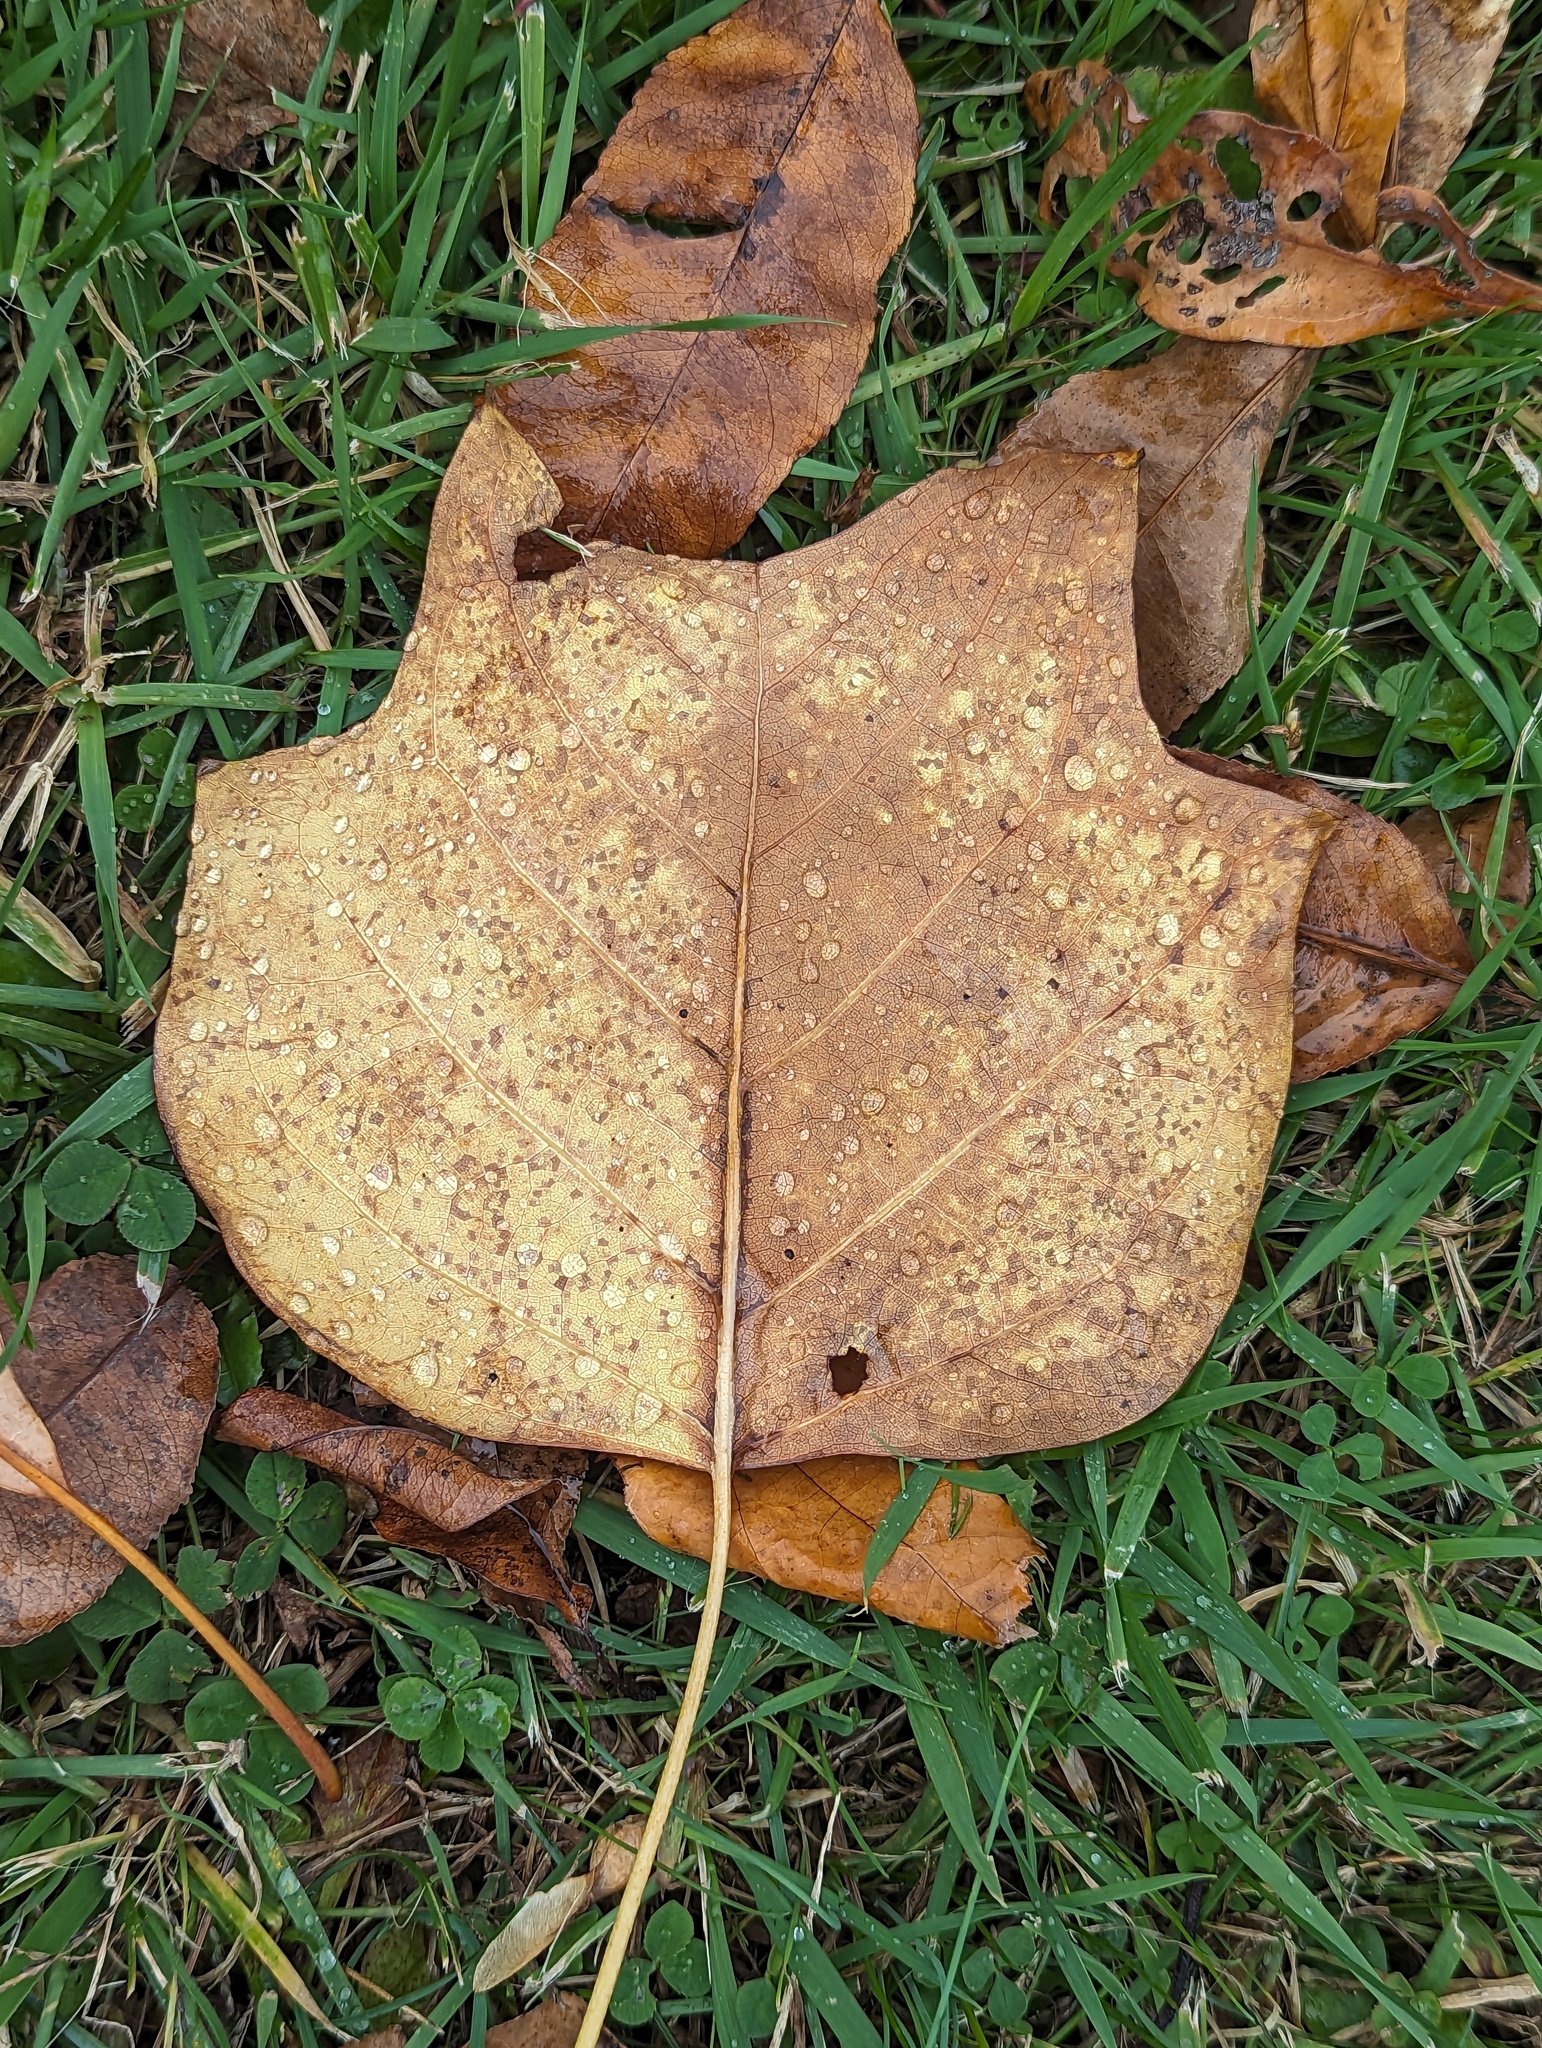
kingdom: Plantae
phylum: Tracheophyta
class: Magnoliopsida
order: Magnoliales
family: Magnoliaceae
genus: Liriodendron
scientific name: Liriodendron tulipifera
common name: Tulip tree
